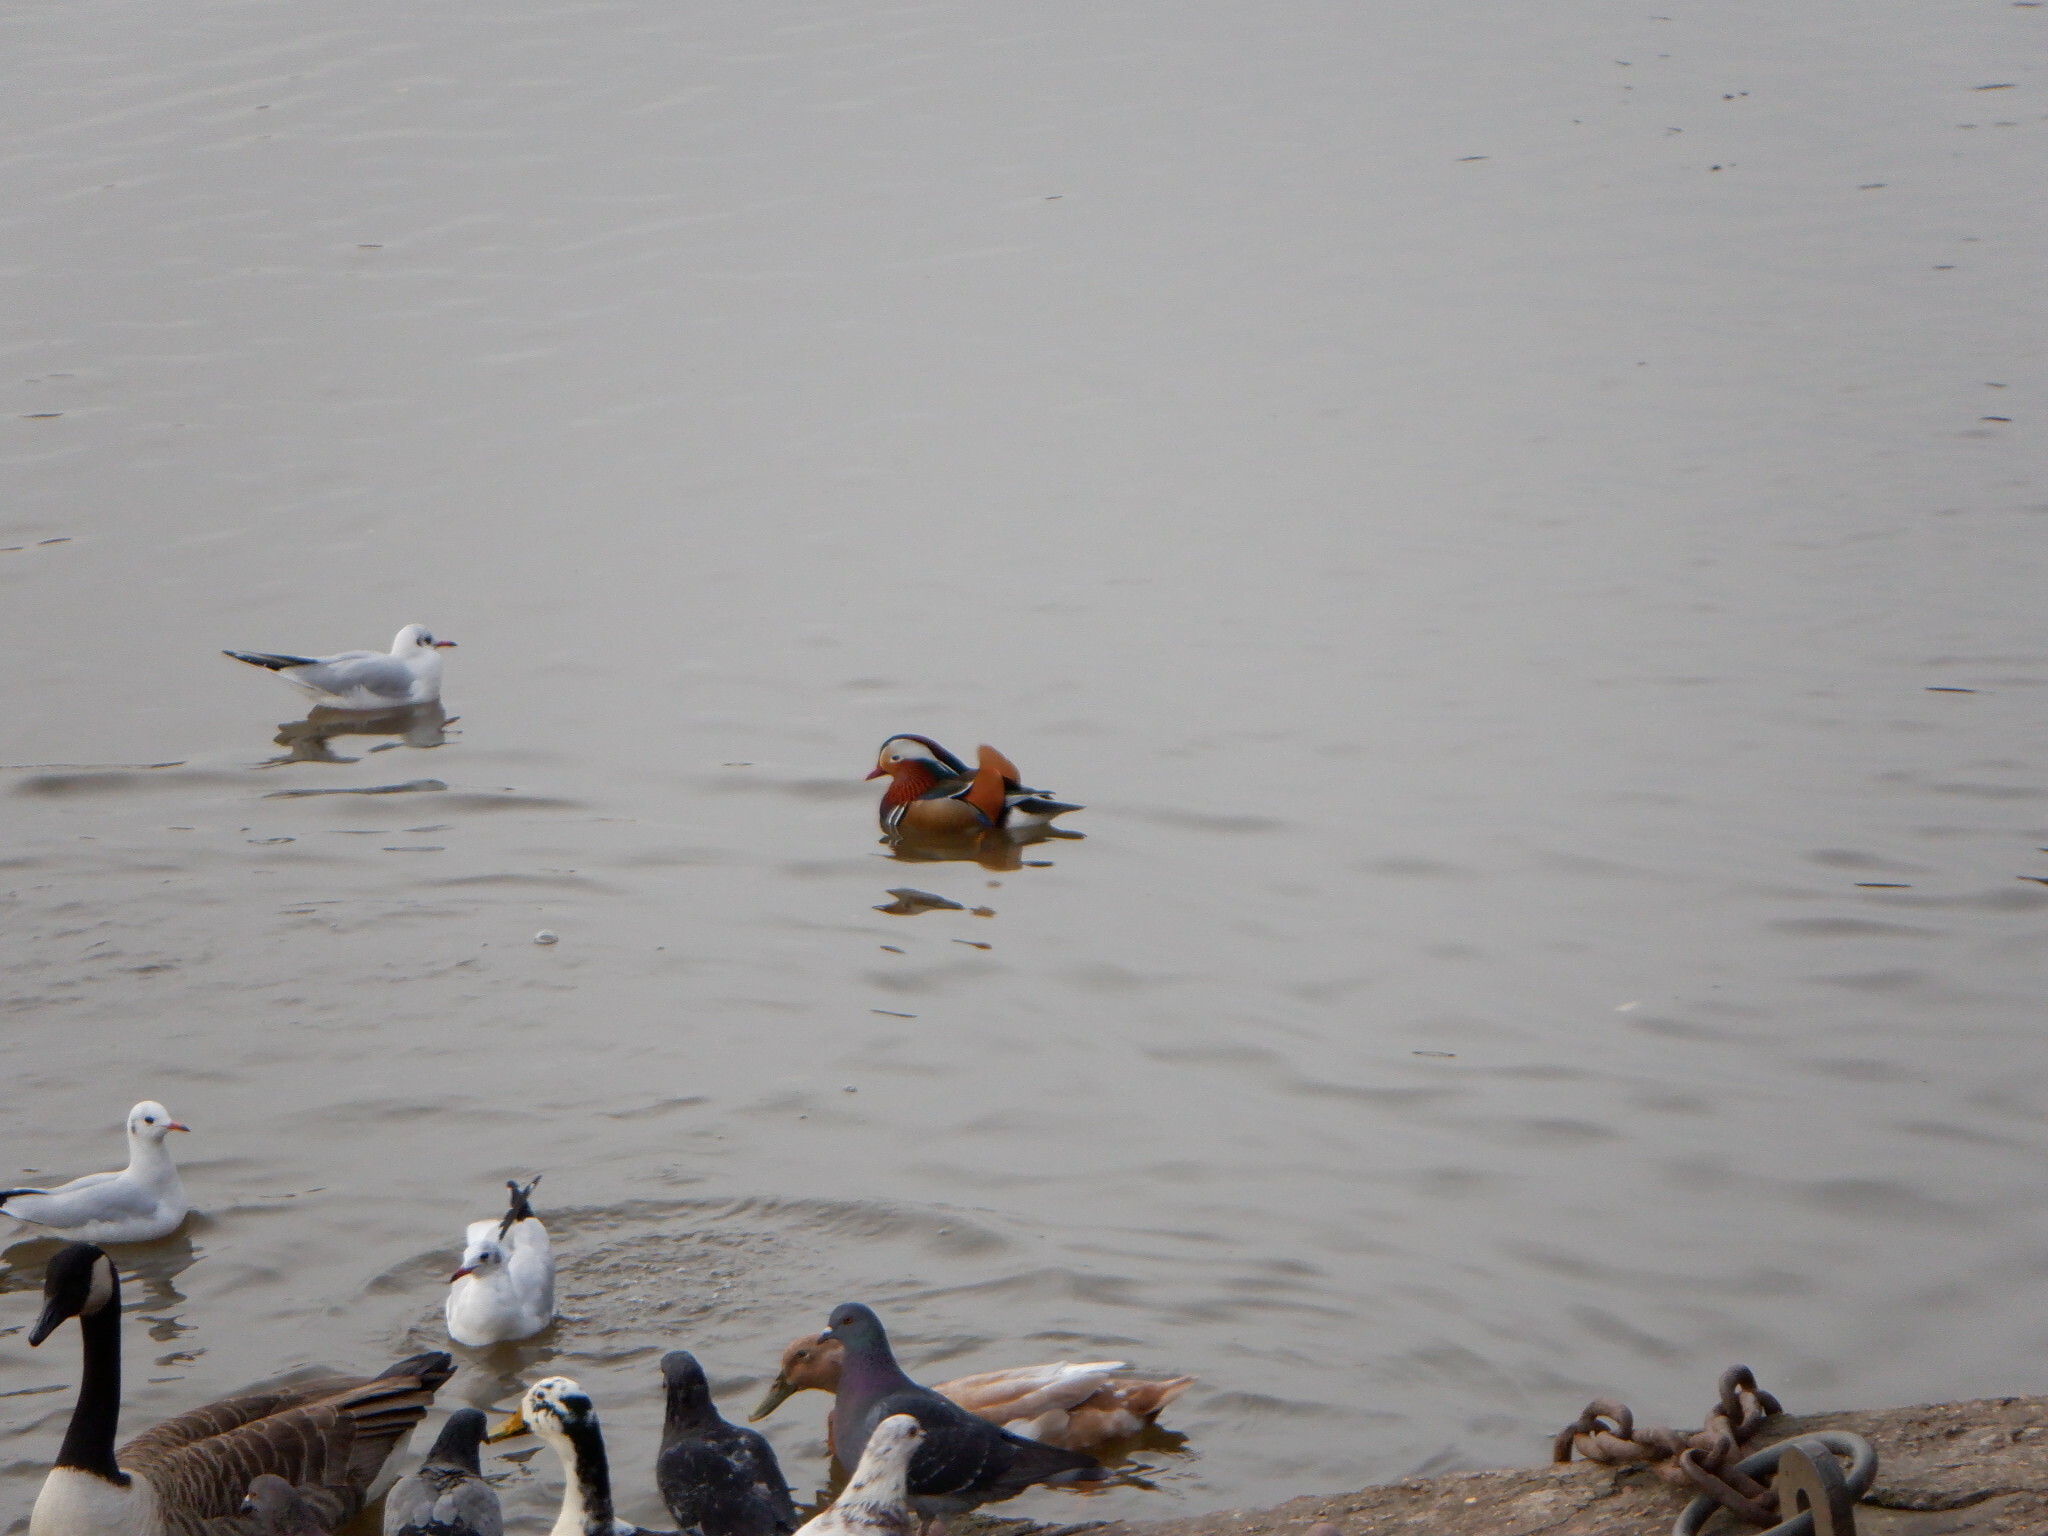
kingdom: Animalia
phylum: Chordata
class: Aves
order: Anseriformes
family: Anatidae
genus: Aix
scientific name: Aix galericulata
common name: Mandarin duck
